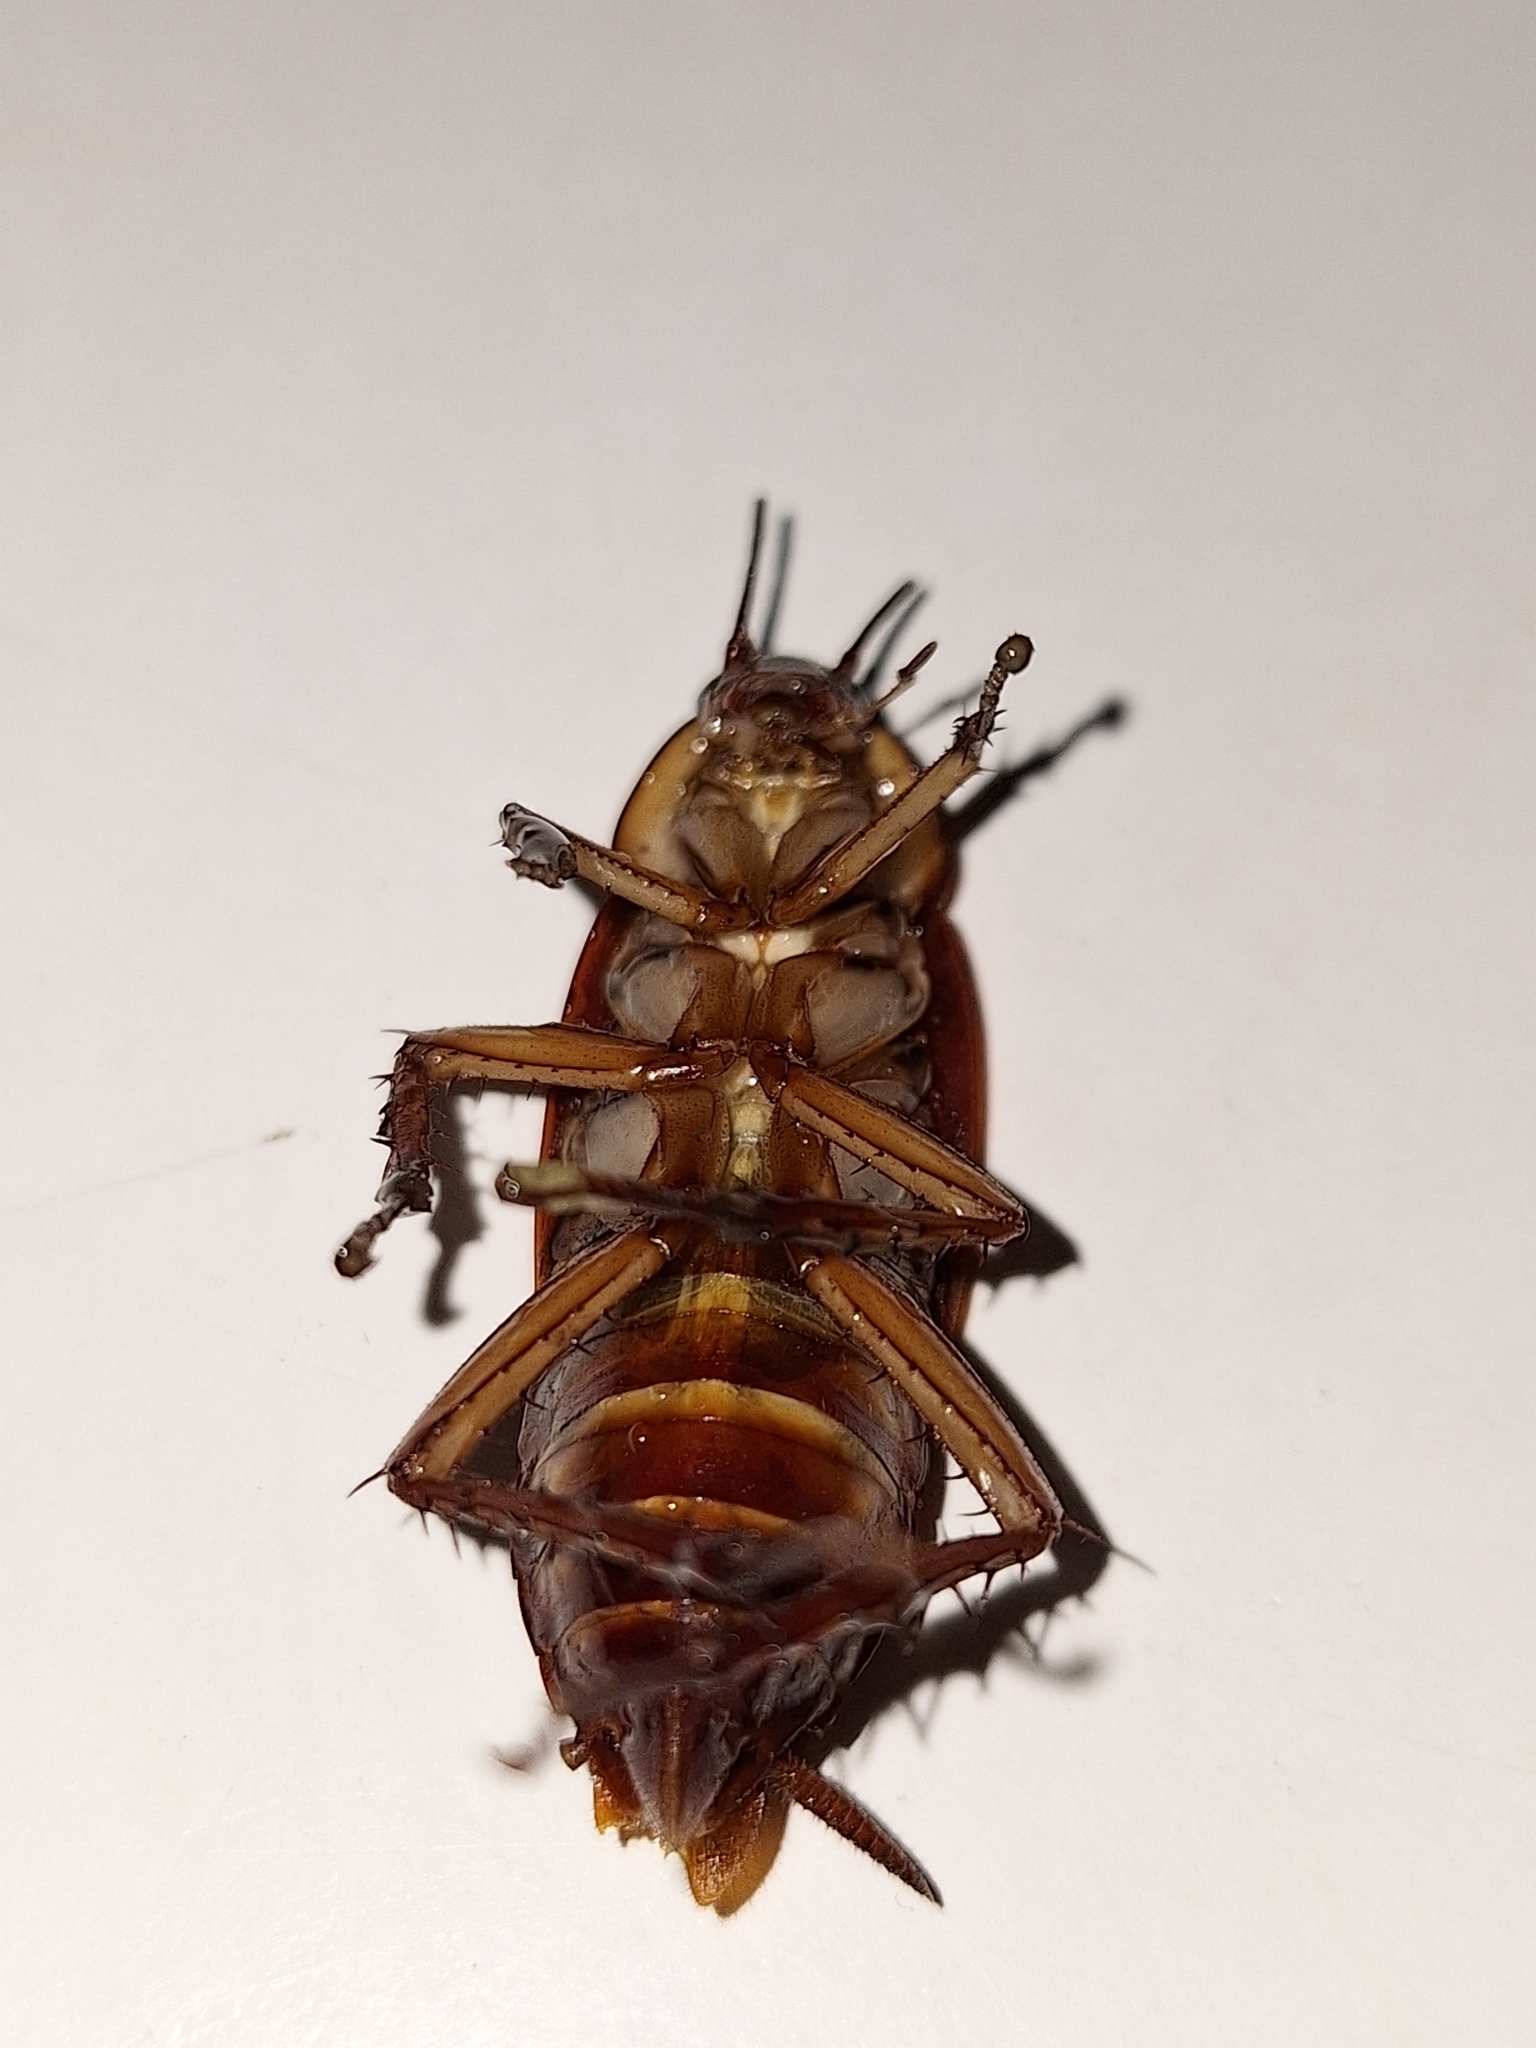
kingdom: Animalia
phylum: Arthropoda
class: Insecta
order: Blattodea
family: Blattidae
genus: Periplaneta
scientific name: Periplaneta americana
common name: American cockroach
